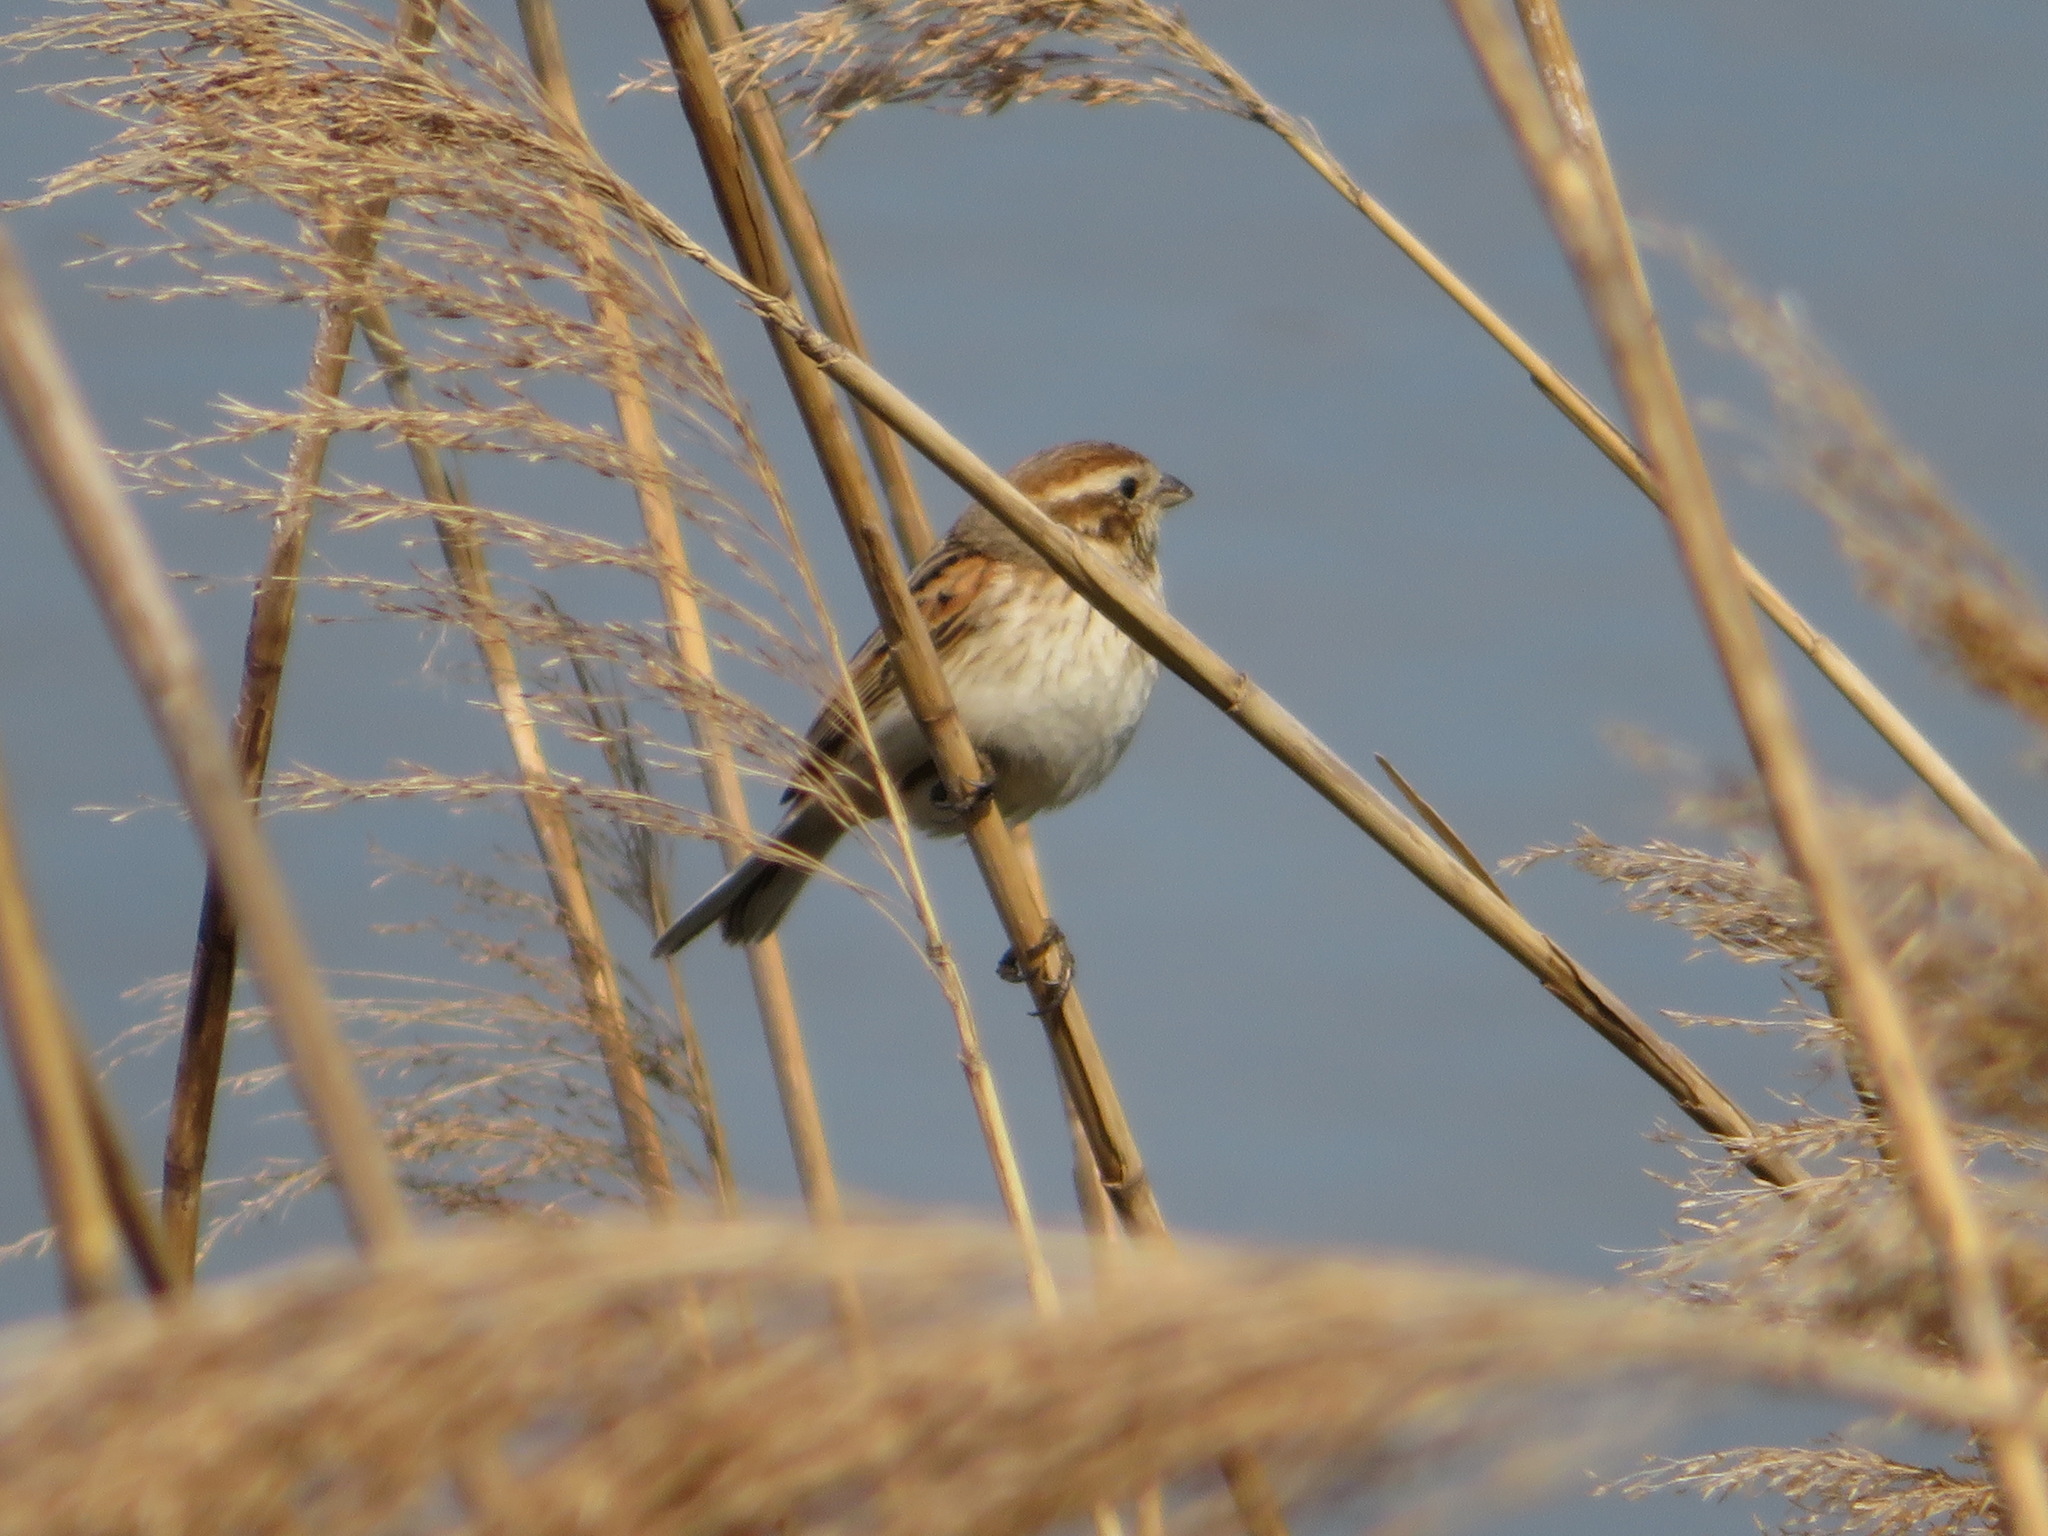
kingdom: Animalia
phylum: Chordata
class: Aves
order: Passeriformes
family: Emberizidae
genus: Emberiza
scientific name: Emberiza schoeniclus
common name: Reed bunting
